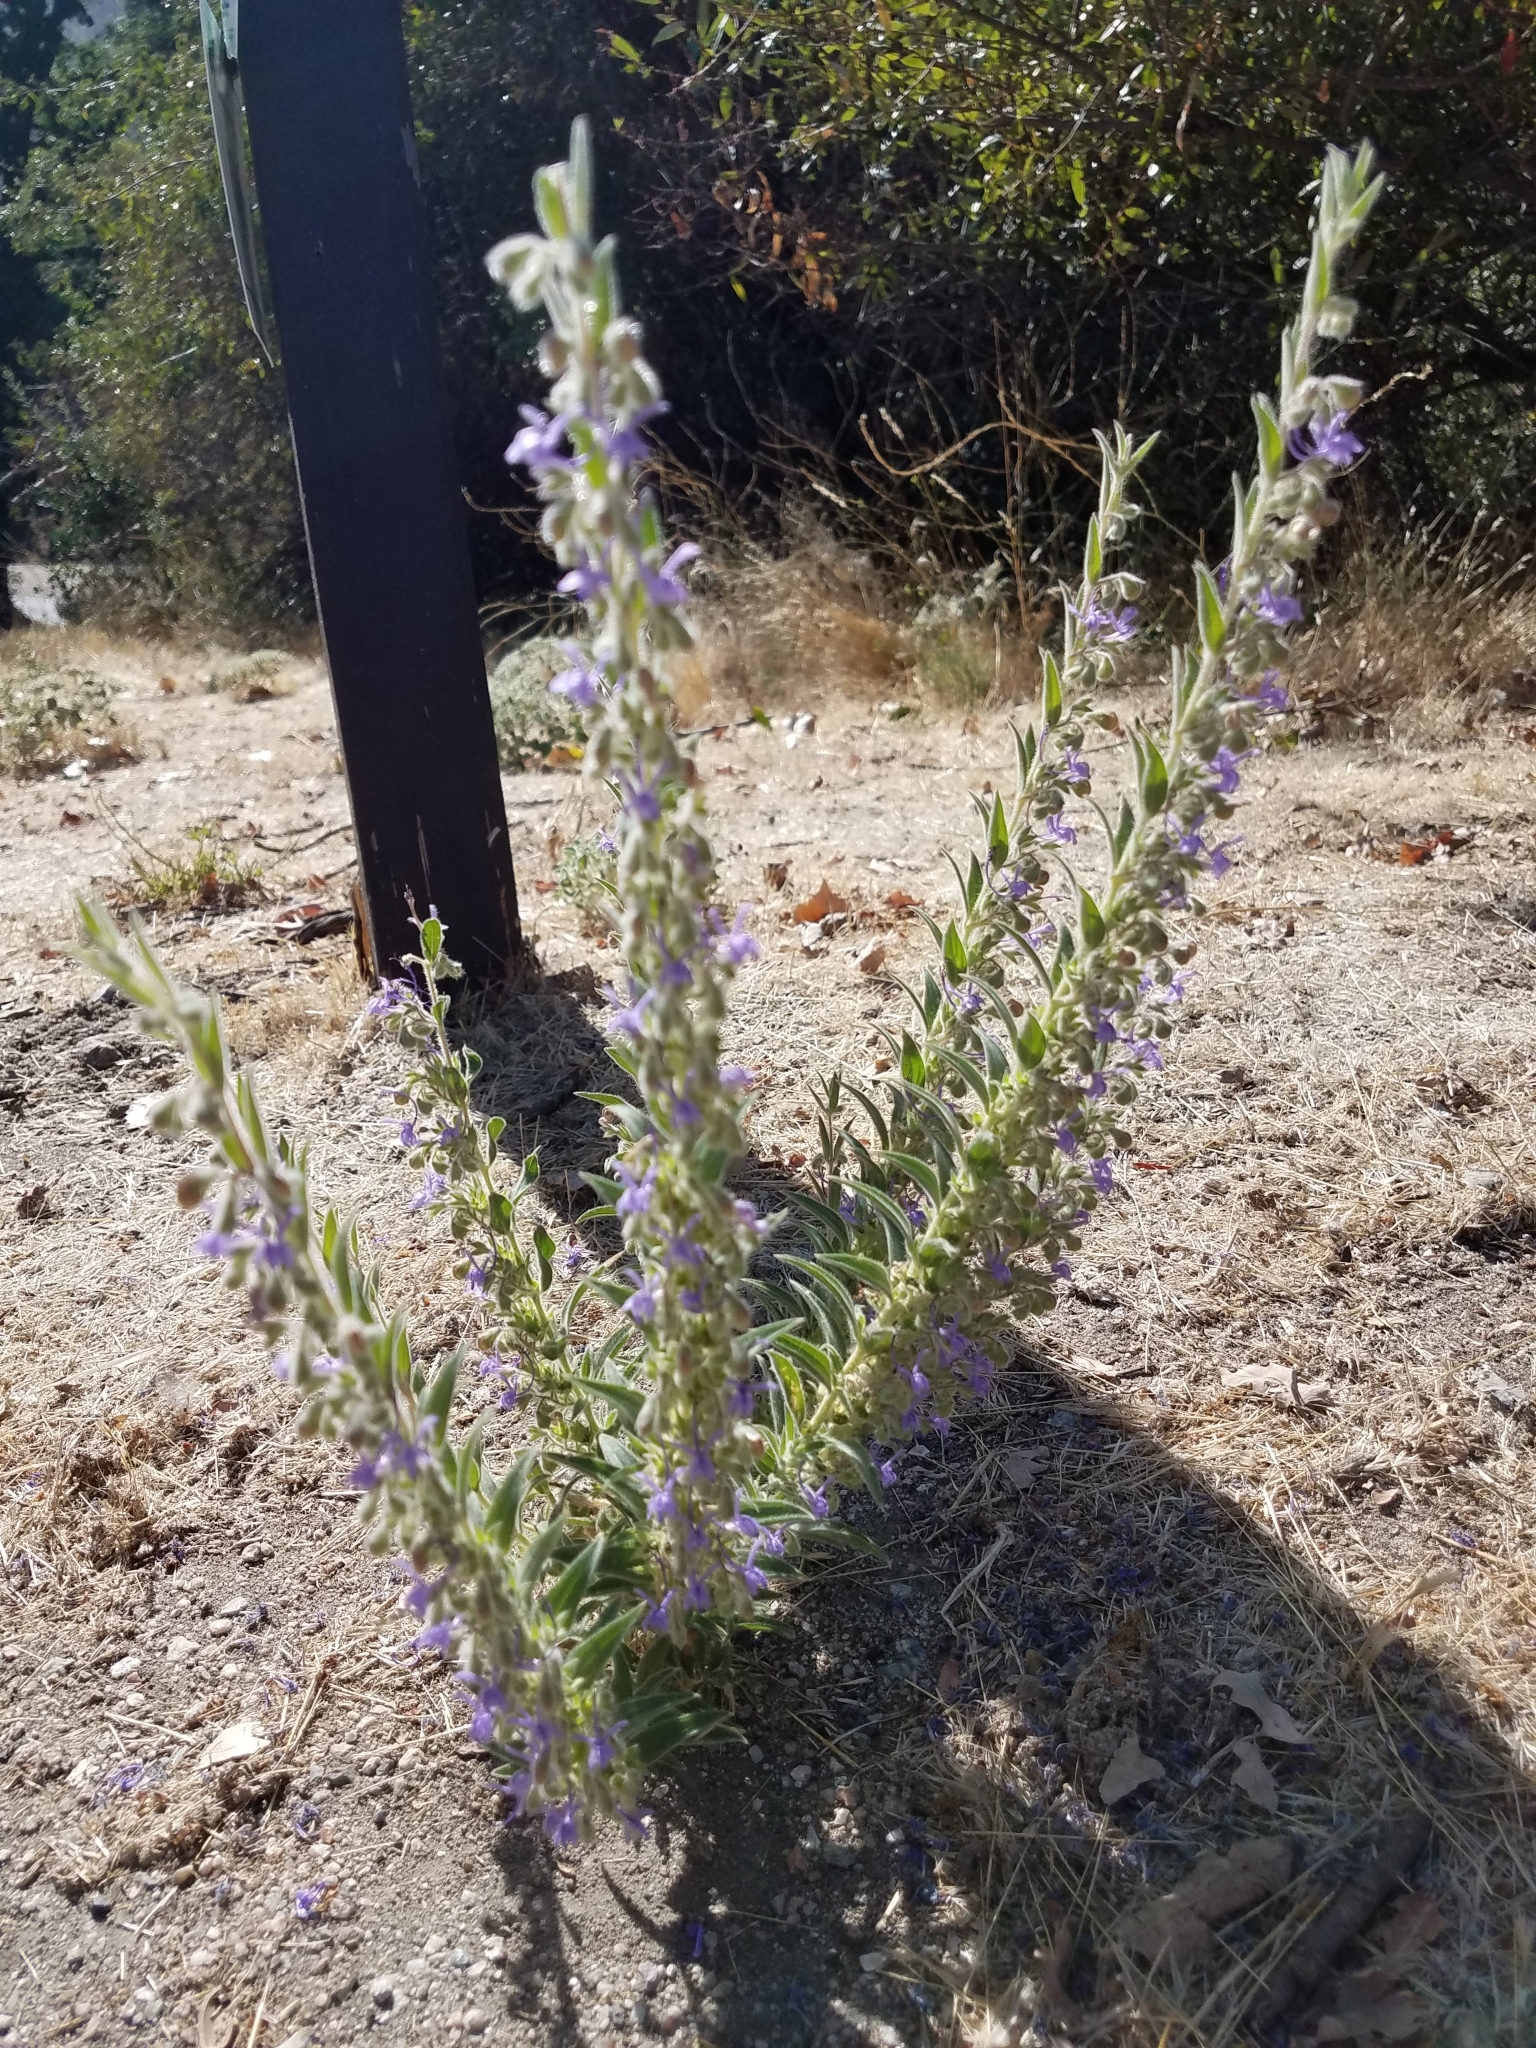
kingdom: Plantae
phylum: Tracheophyta
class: Magnoliopsida
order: Lamiales
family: Lamiaceae
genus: Trichostema
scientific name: Trichostema lanceolatum
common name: Vinegar-weed
